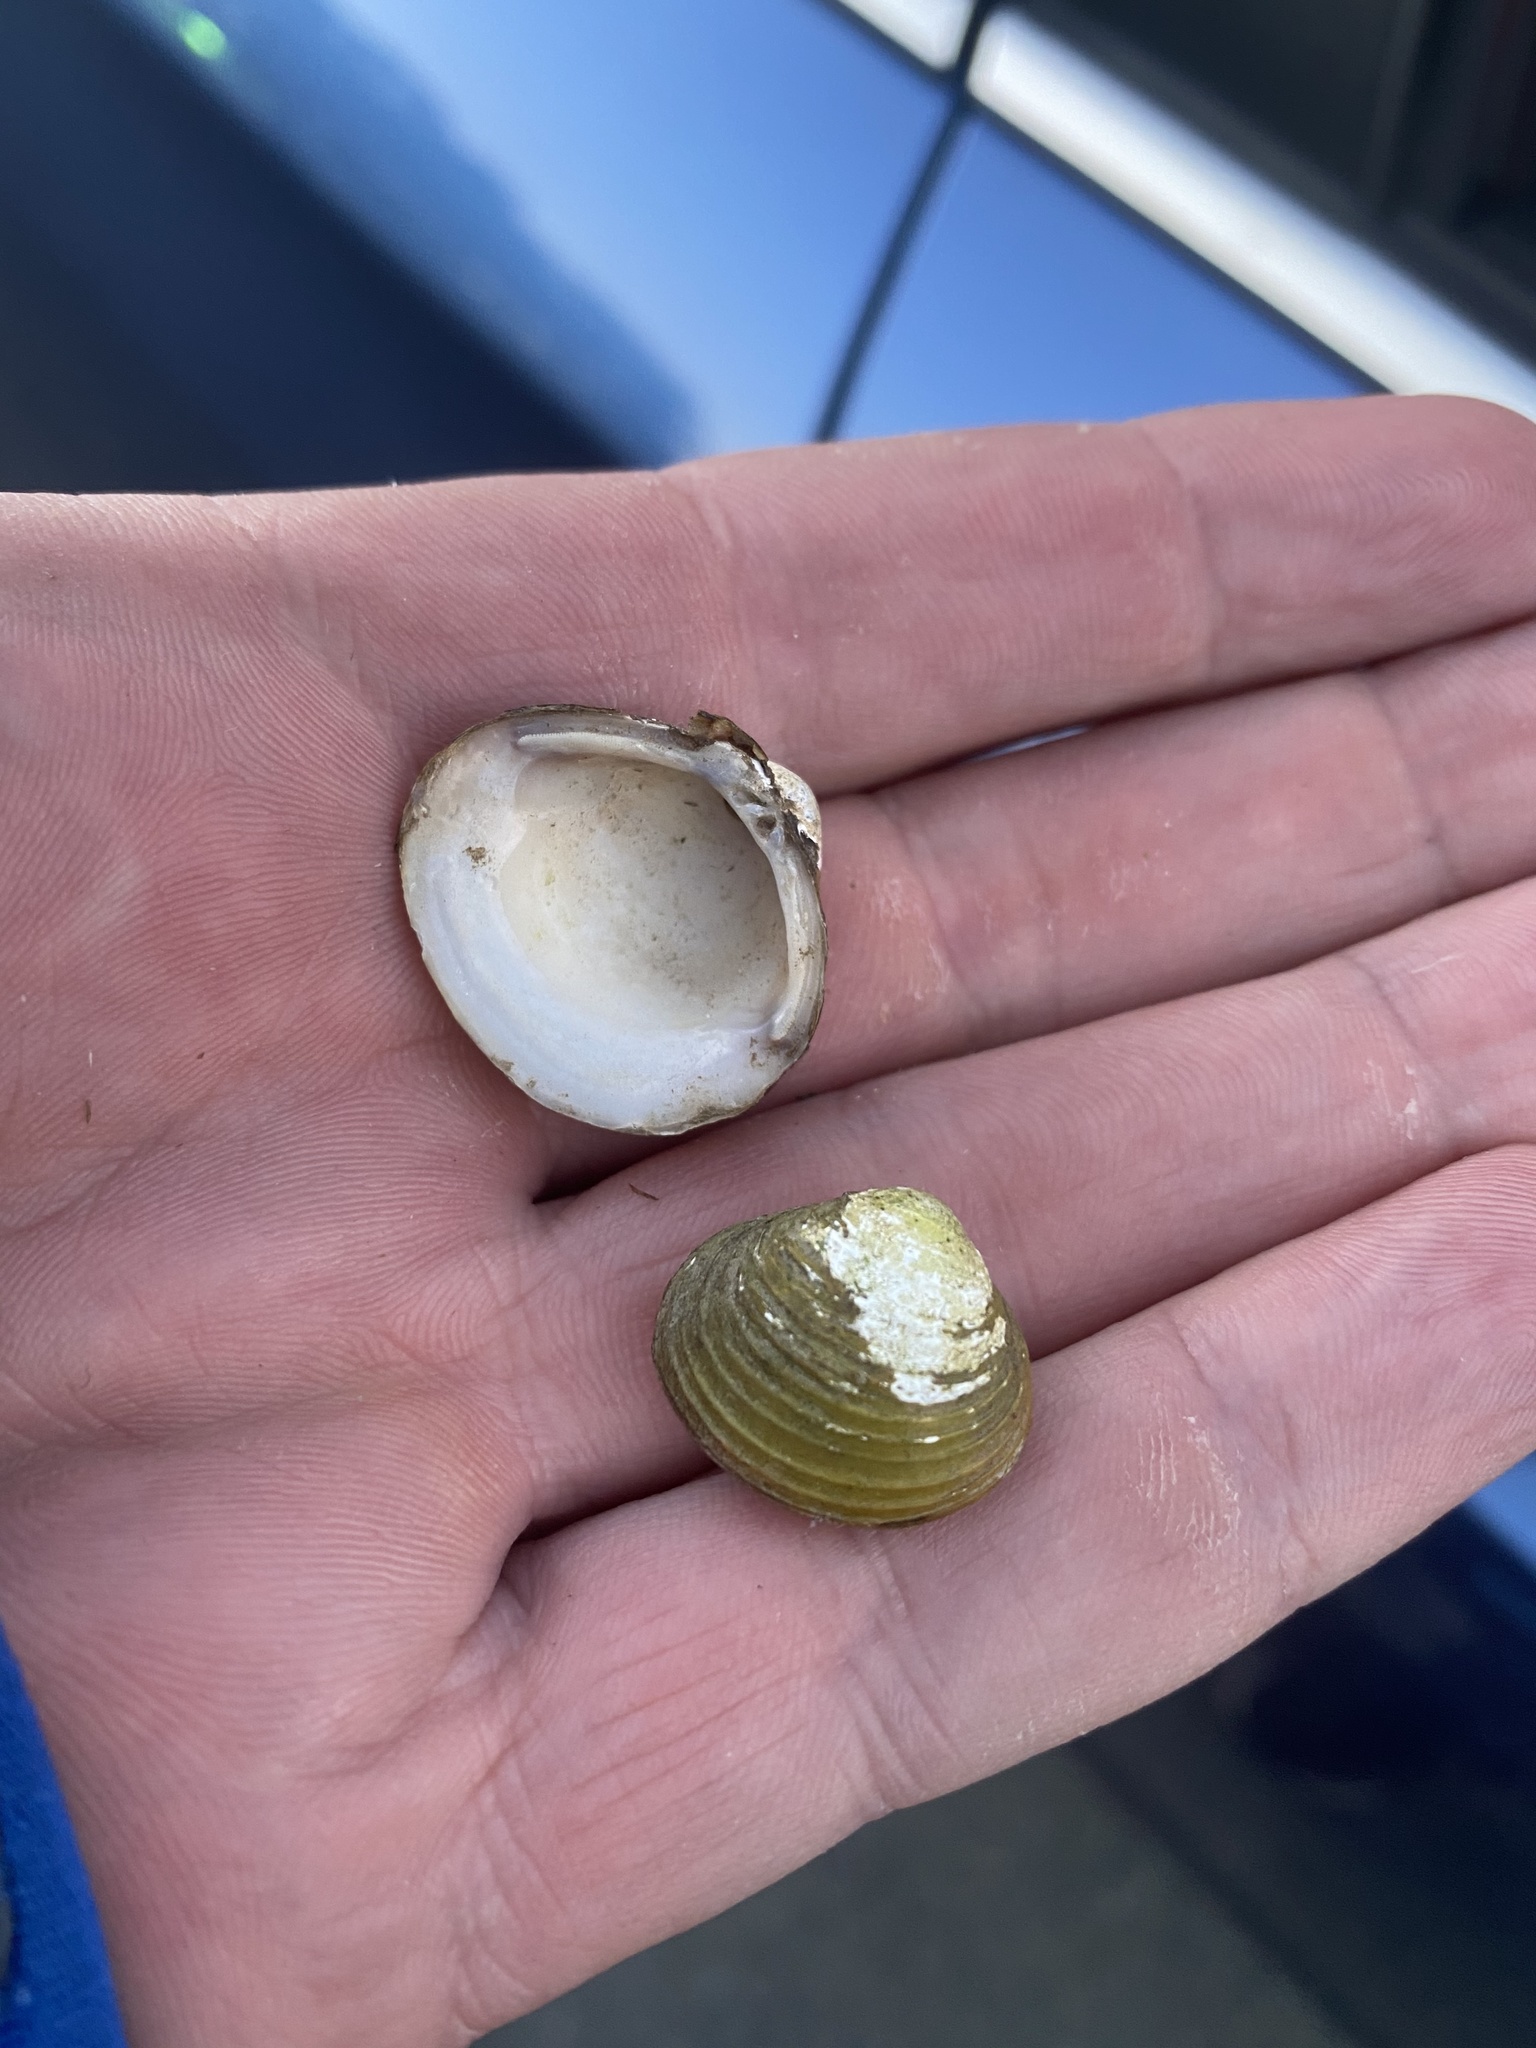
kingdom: Animalia
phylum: Mollusca
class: Bivalvia
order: Venerida
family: Cyrenidae
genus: Corbicula
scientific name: Corbicula fluminea
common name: Asian clam
